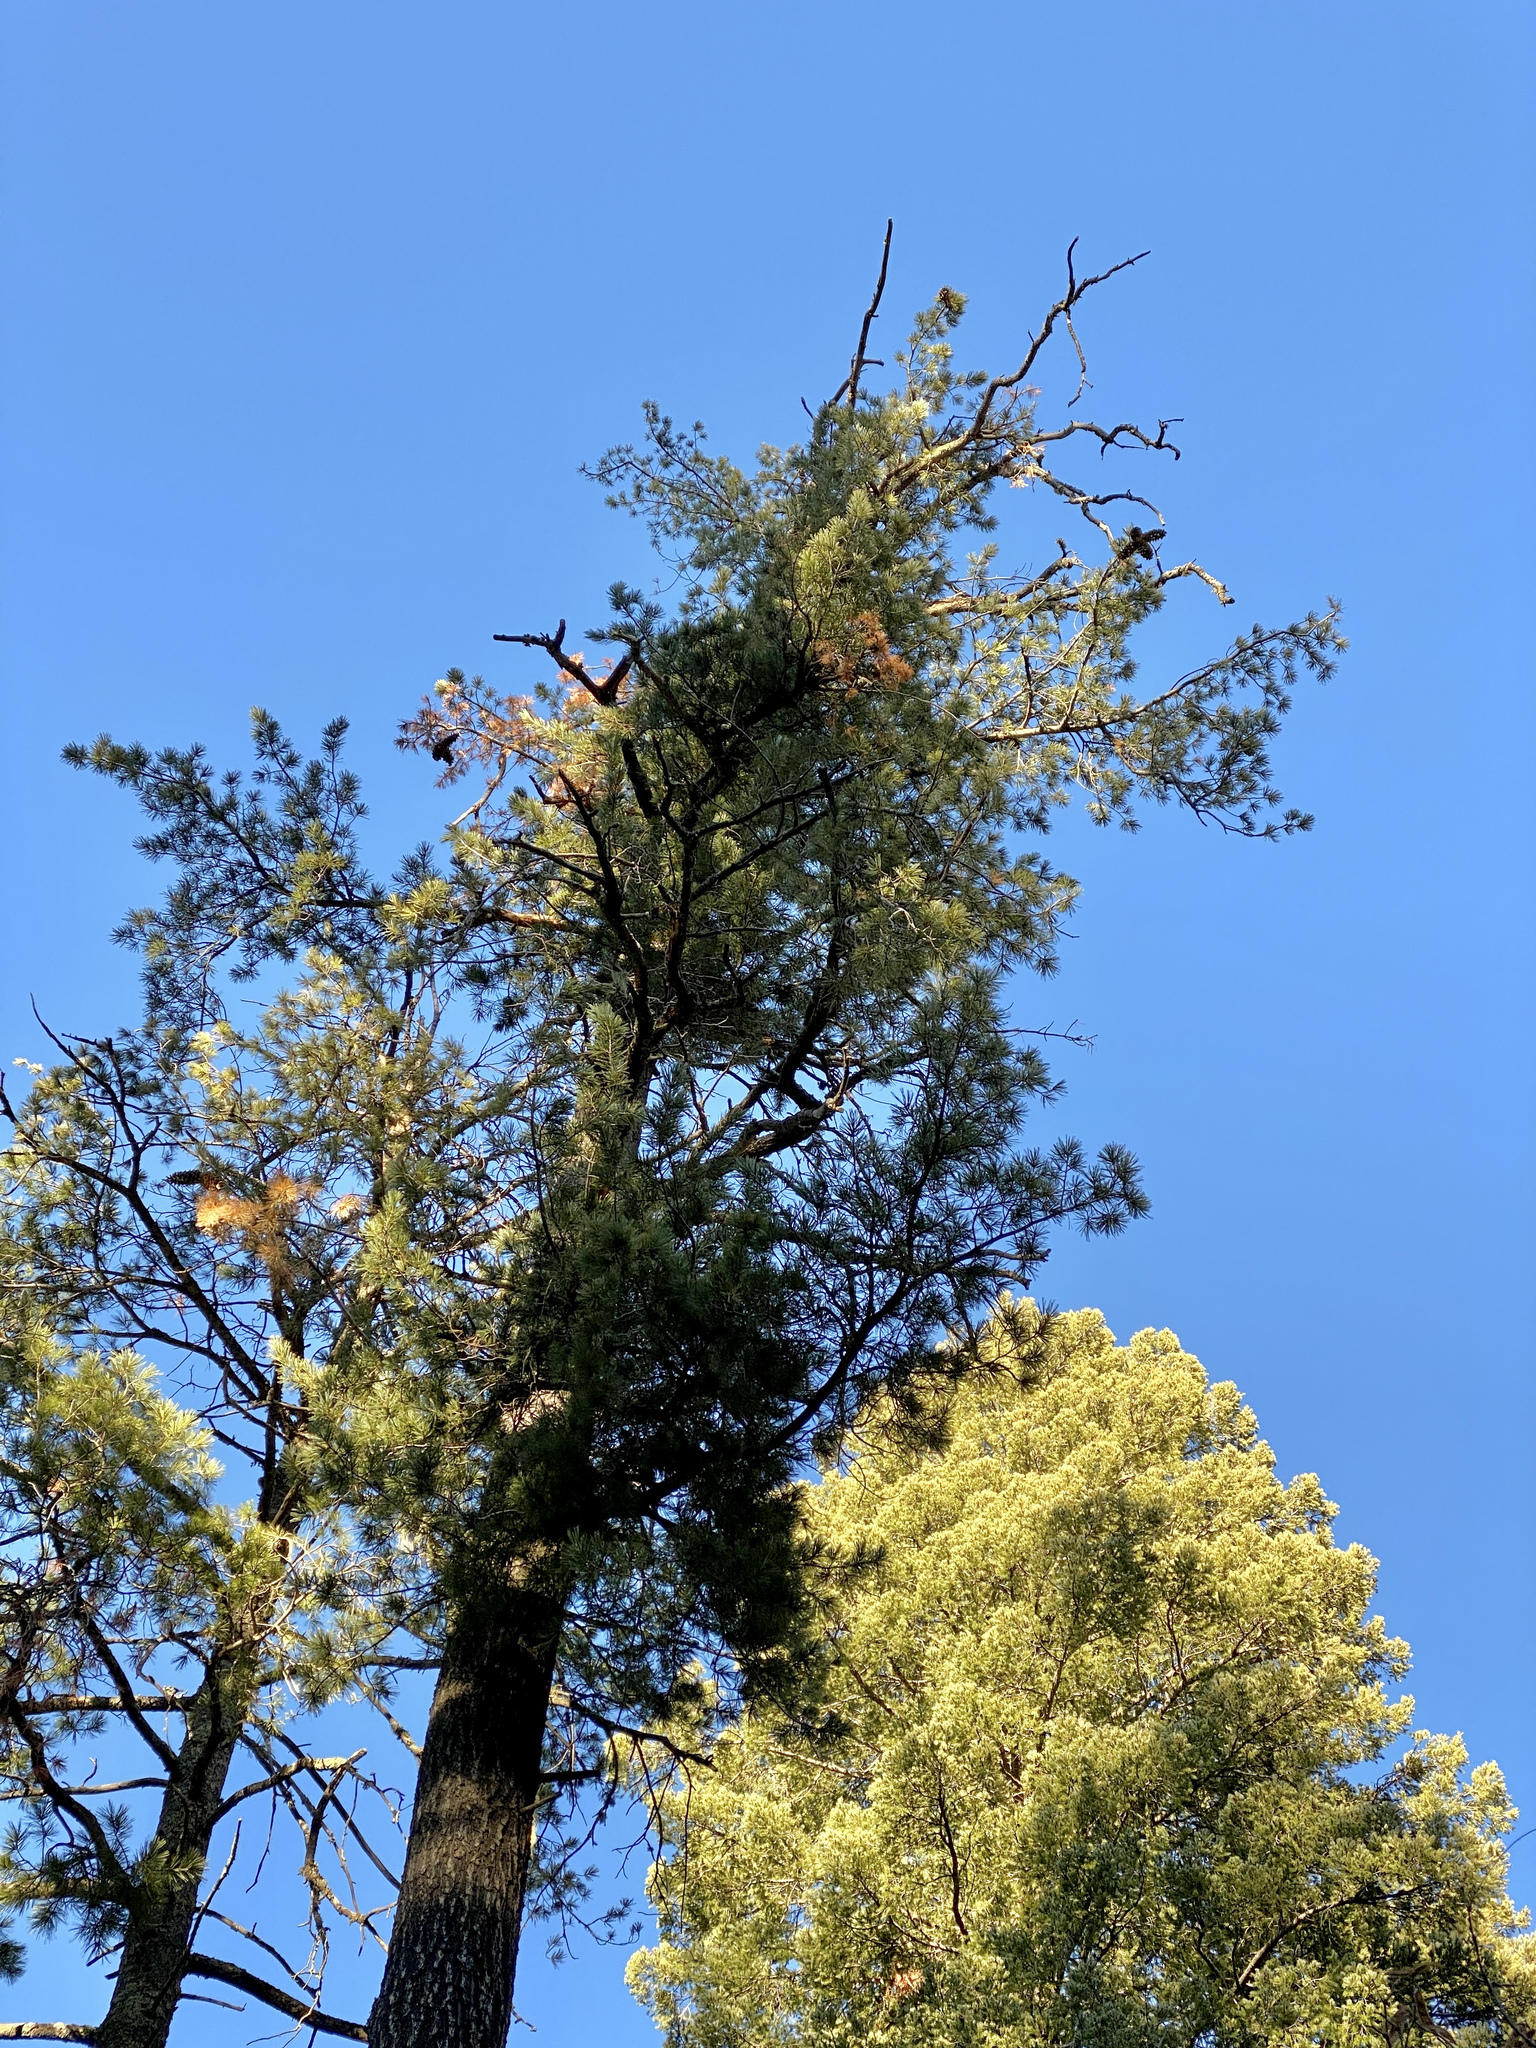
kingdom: Plantae
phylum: Tracheophyta
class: Pinopsida
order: Pinales
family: Pinaceae
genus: Pinus
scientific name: Pinus strobiformis
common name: Southwestern white pine
